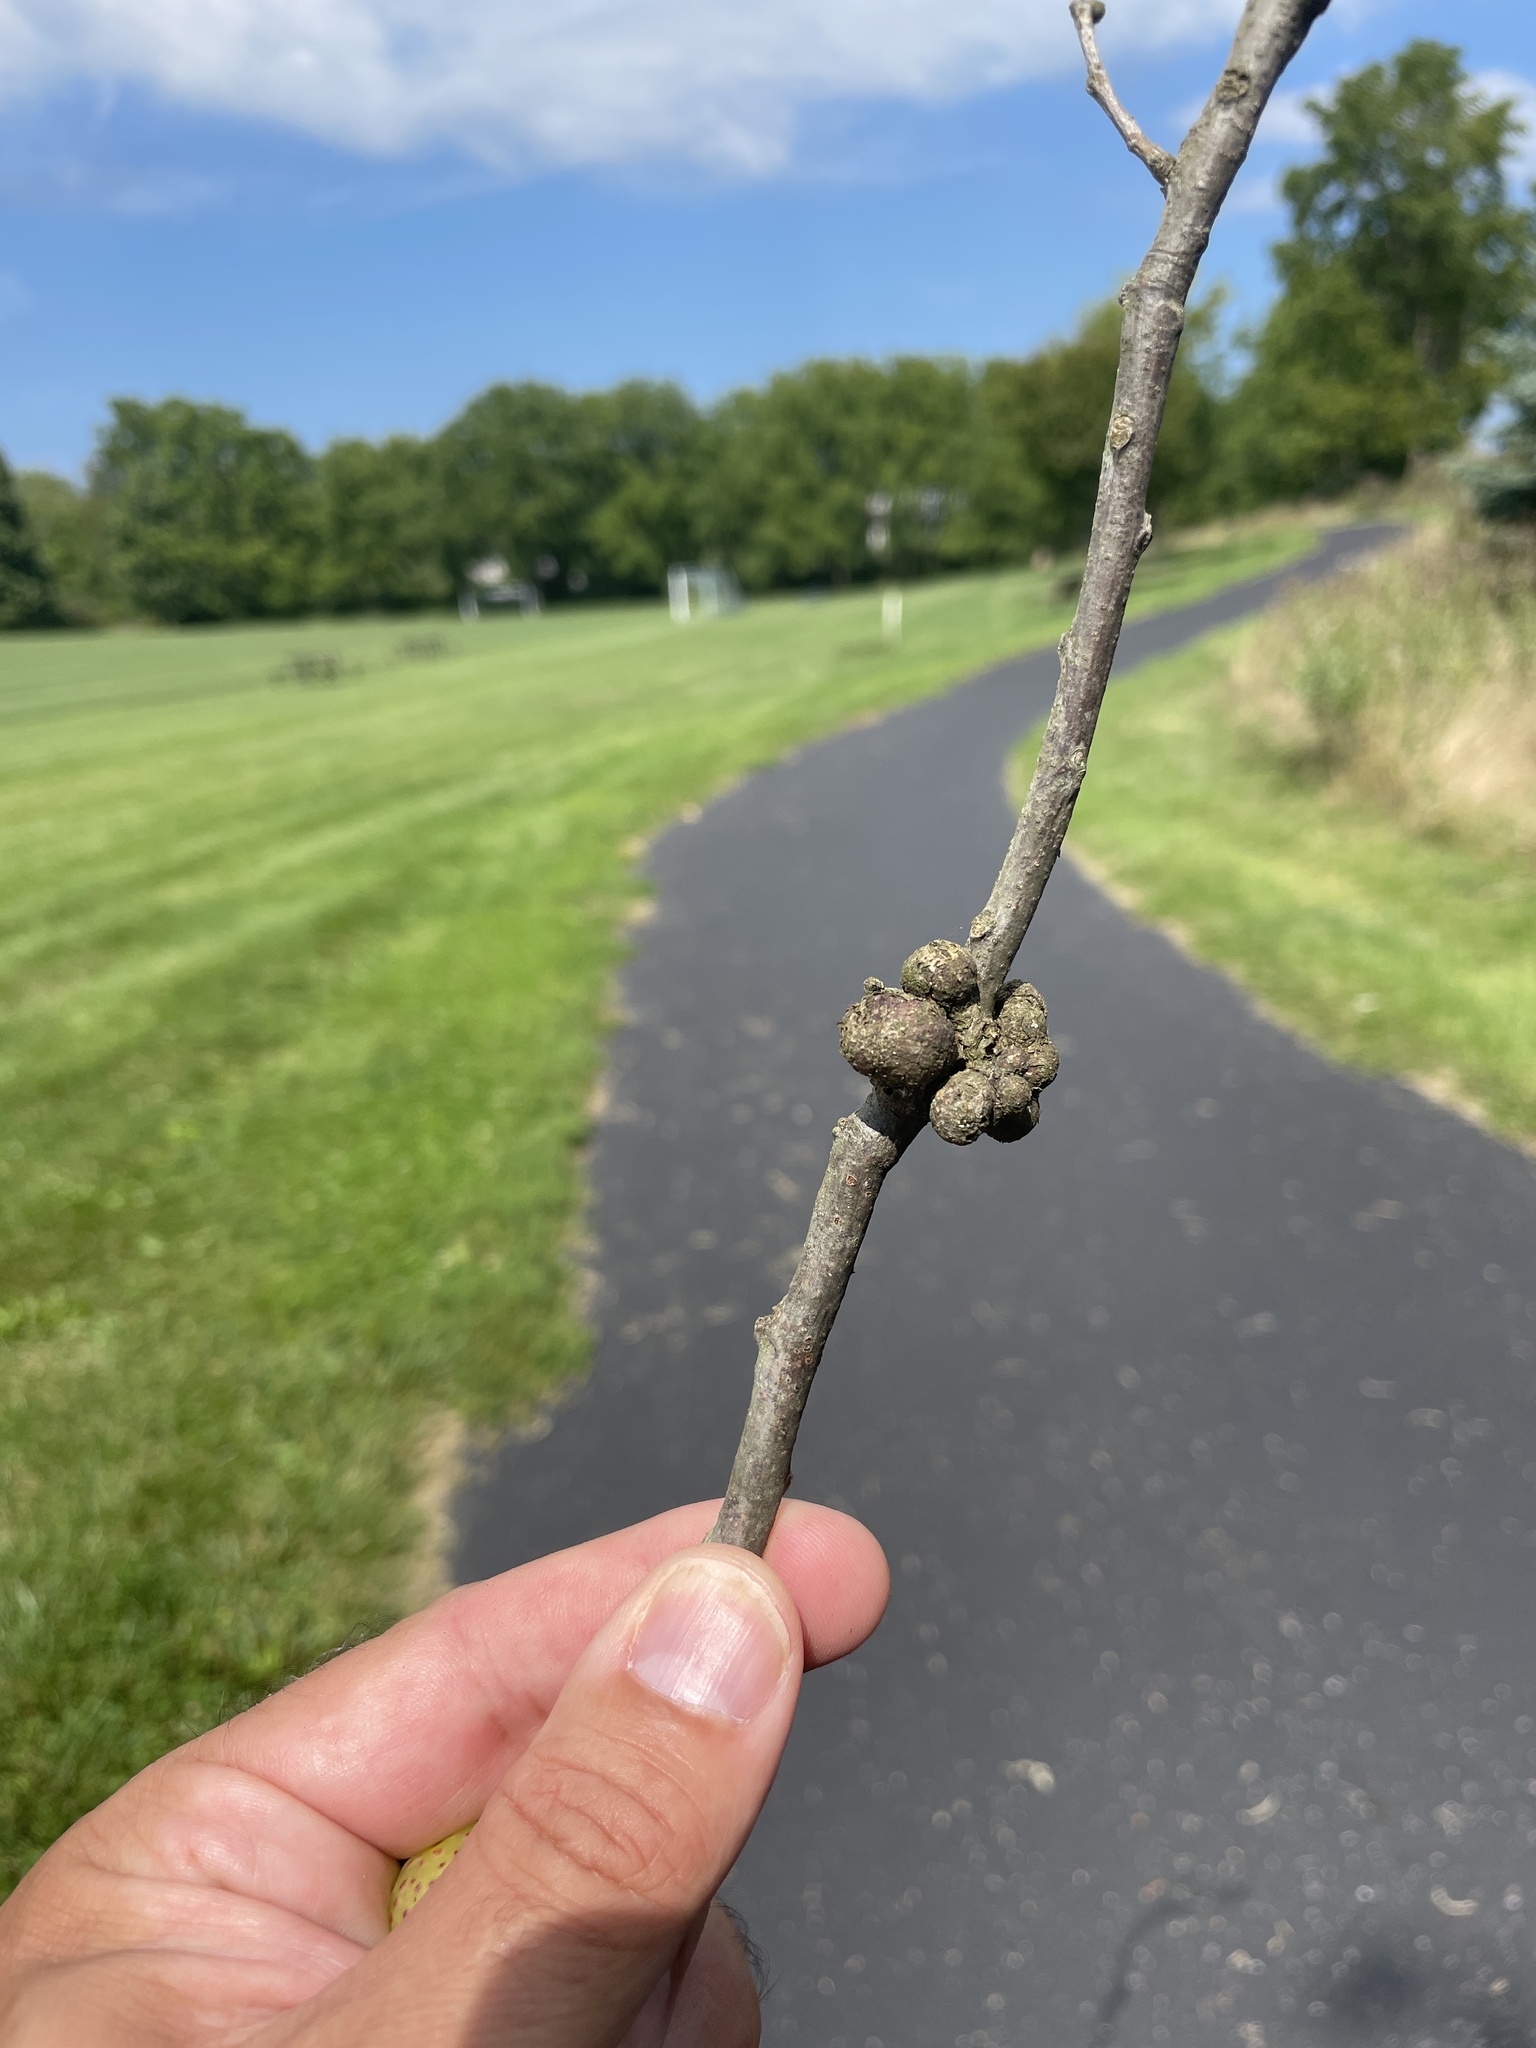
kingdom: Animalia
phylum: Arthropoda
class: Insecta
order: Hymenoptera
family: Cynipidae
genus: Synergus
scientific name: Synergus lignicola
